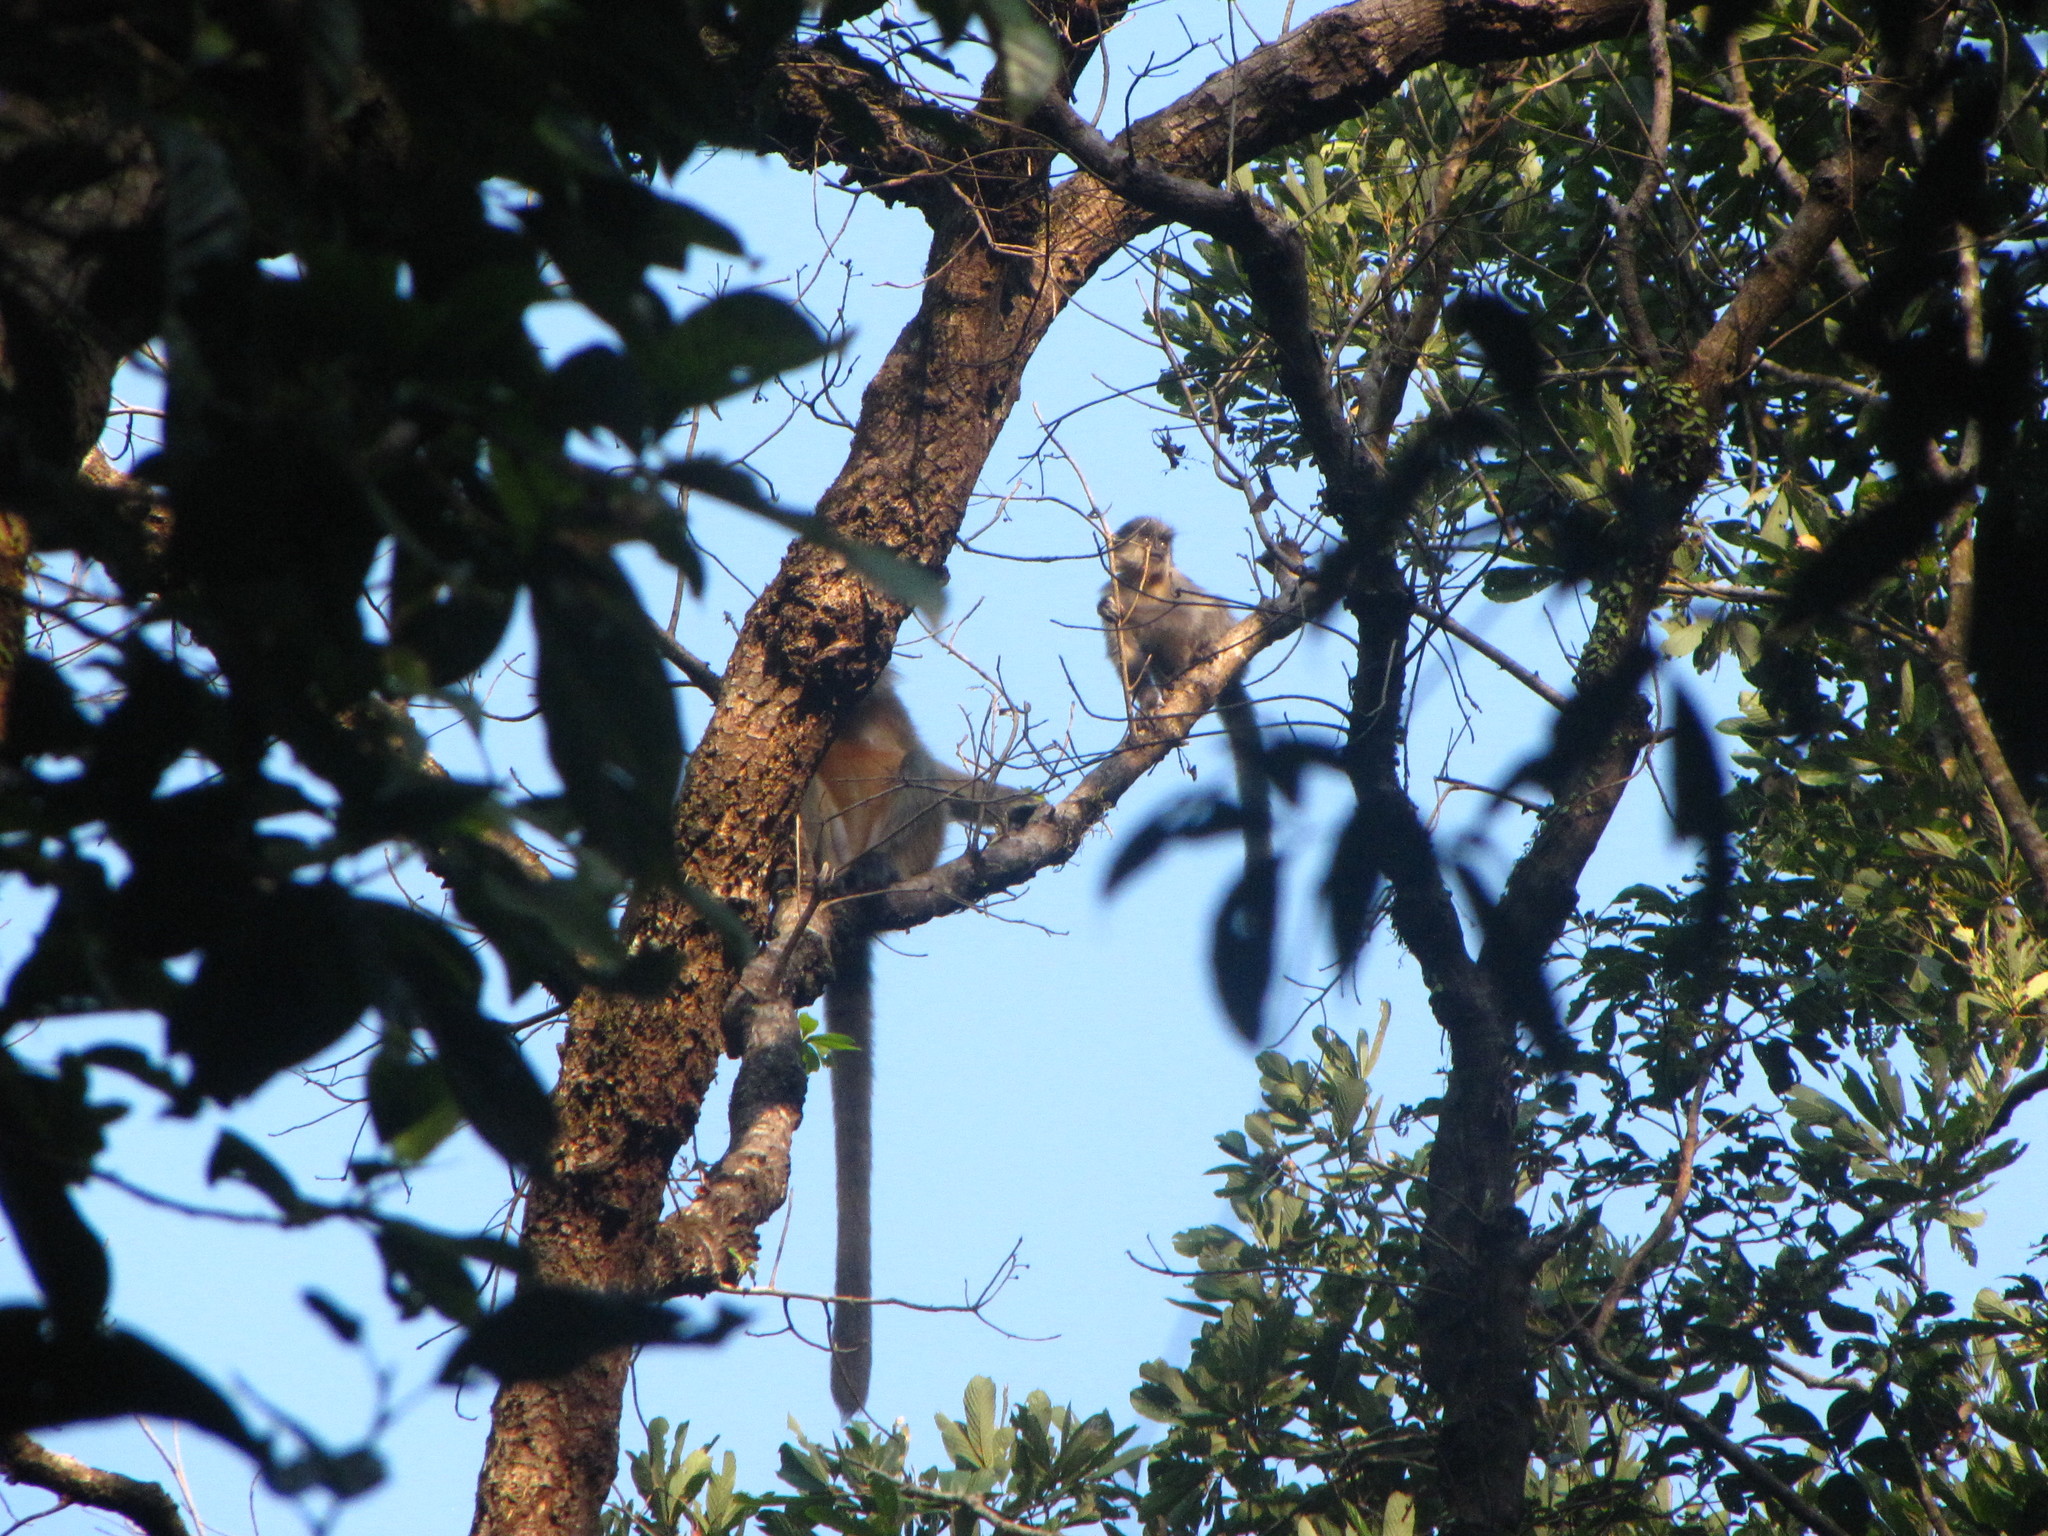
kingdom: Animalia
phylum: Chordata
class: Mammalia
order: Primates
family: Cercopithecidae
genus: Trachypithecus
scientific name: Trachypithecus pileatus
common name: Capped langur
